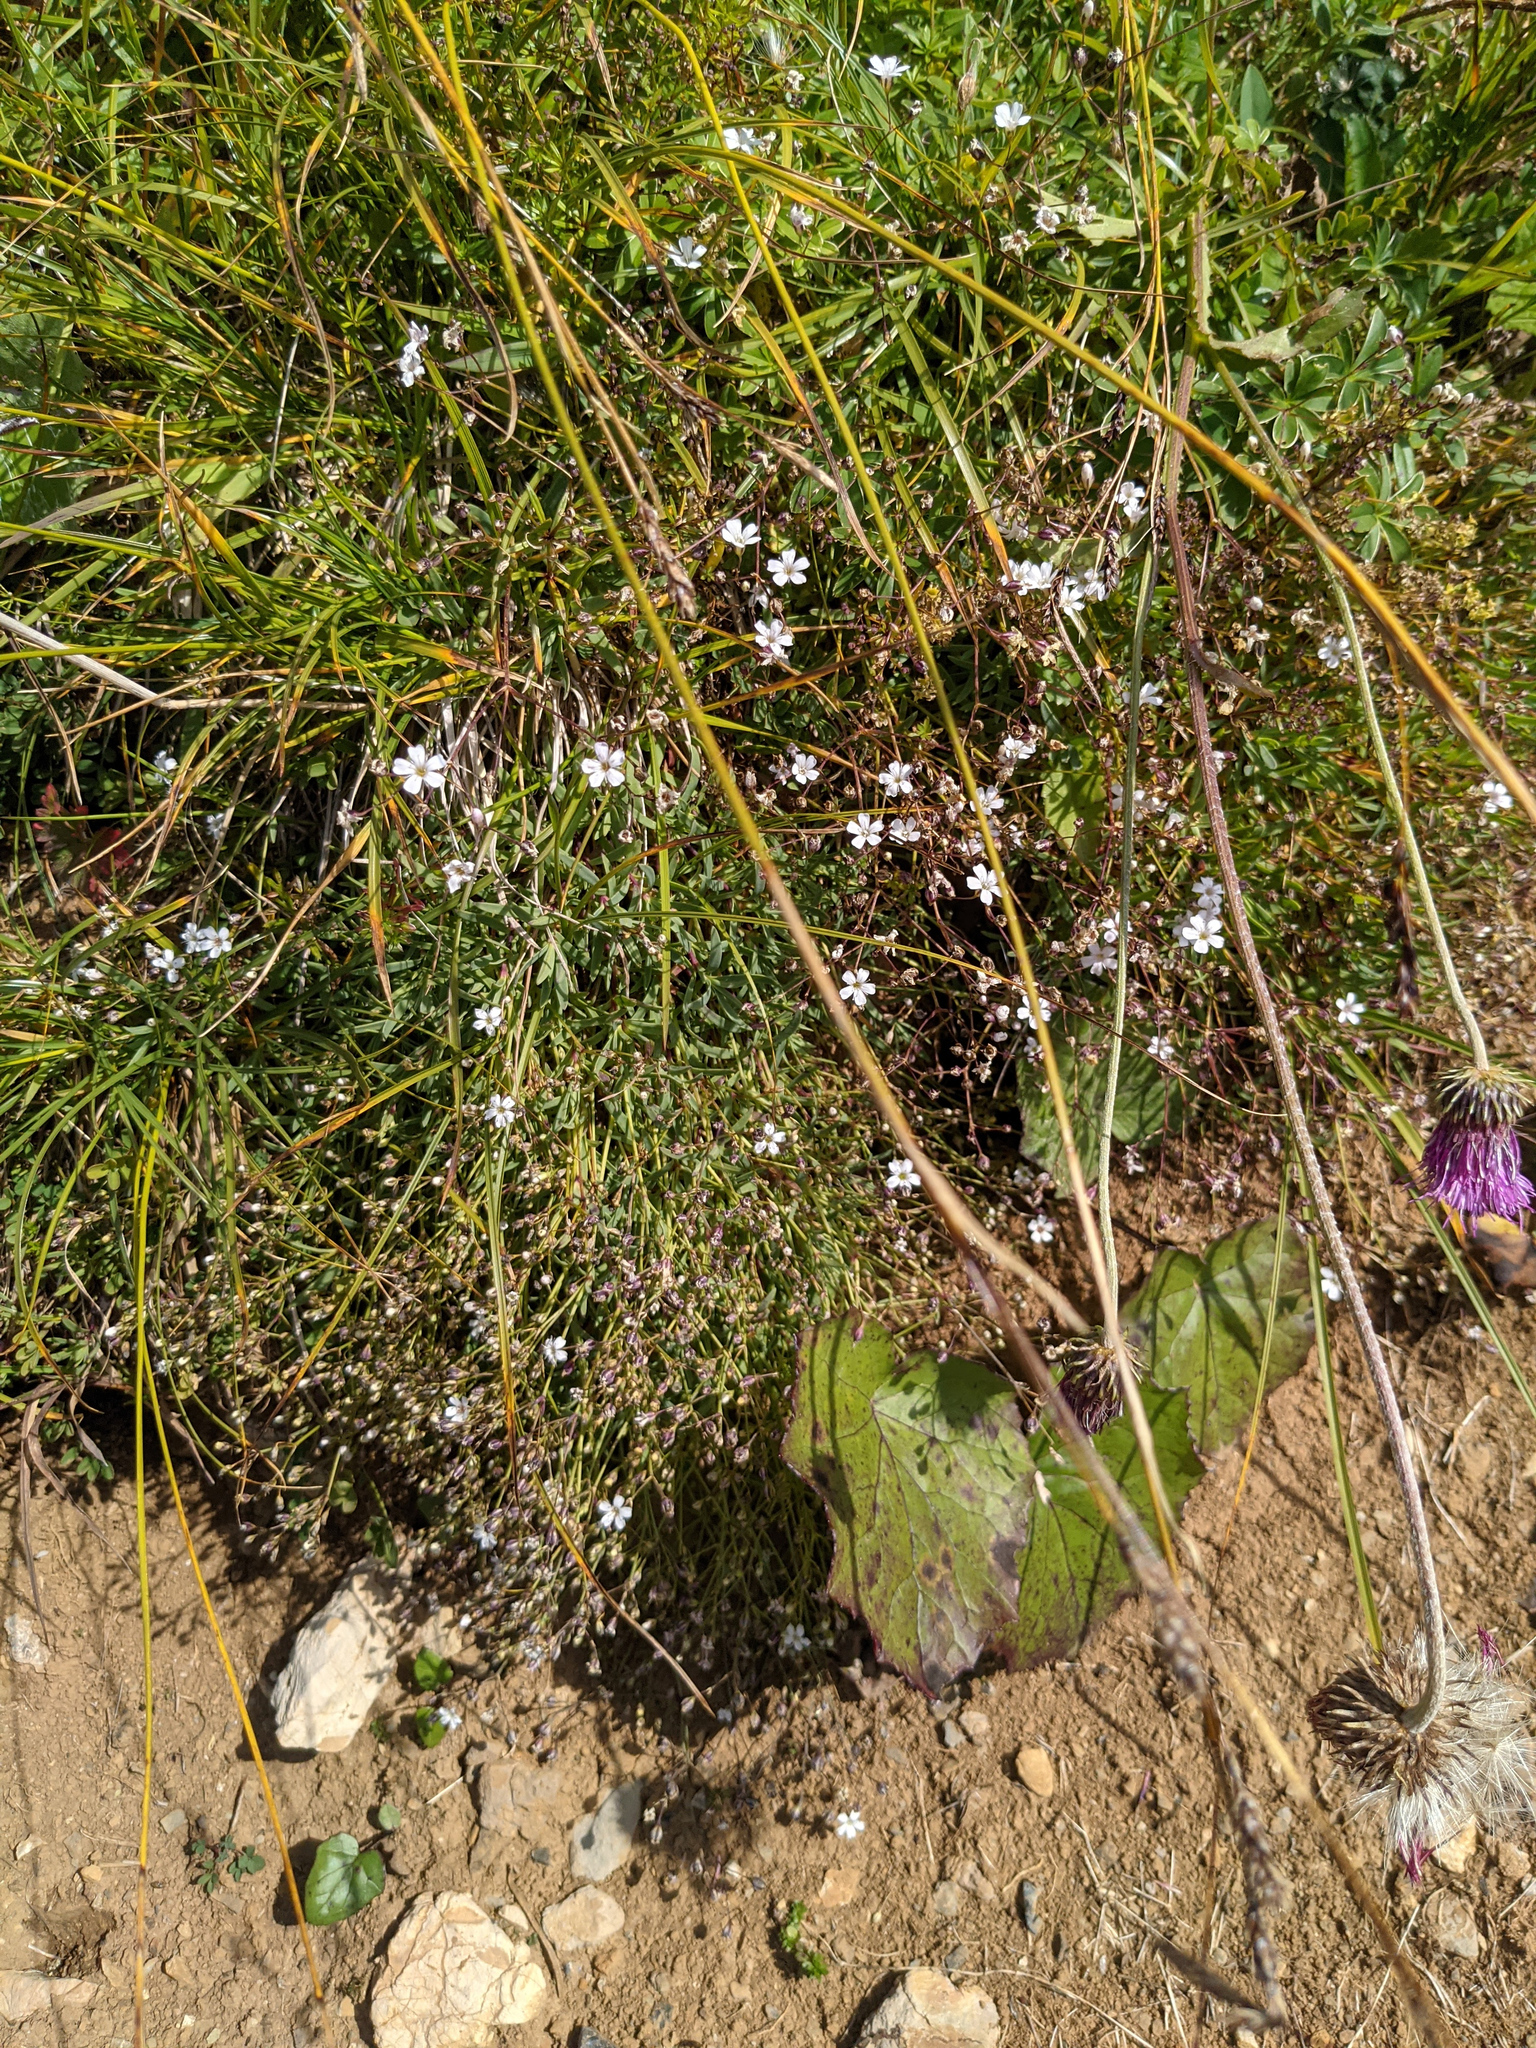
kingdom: Plantae
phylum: Tracheophyta
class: Magnoliopsida
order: Caryophyllales
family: Caryophyllaceae
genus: Gypsophila
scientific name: Gypsophila repens
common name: Creeping baby's-breath
